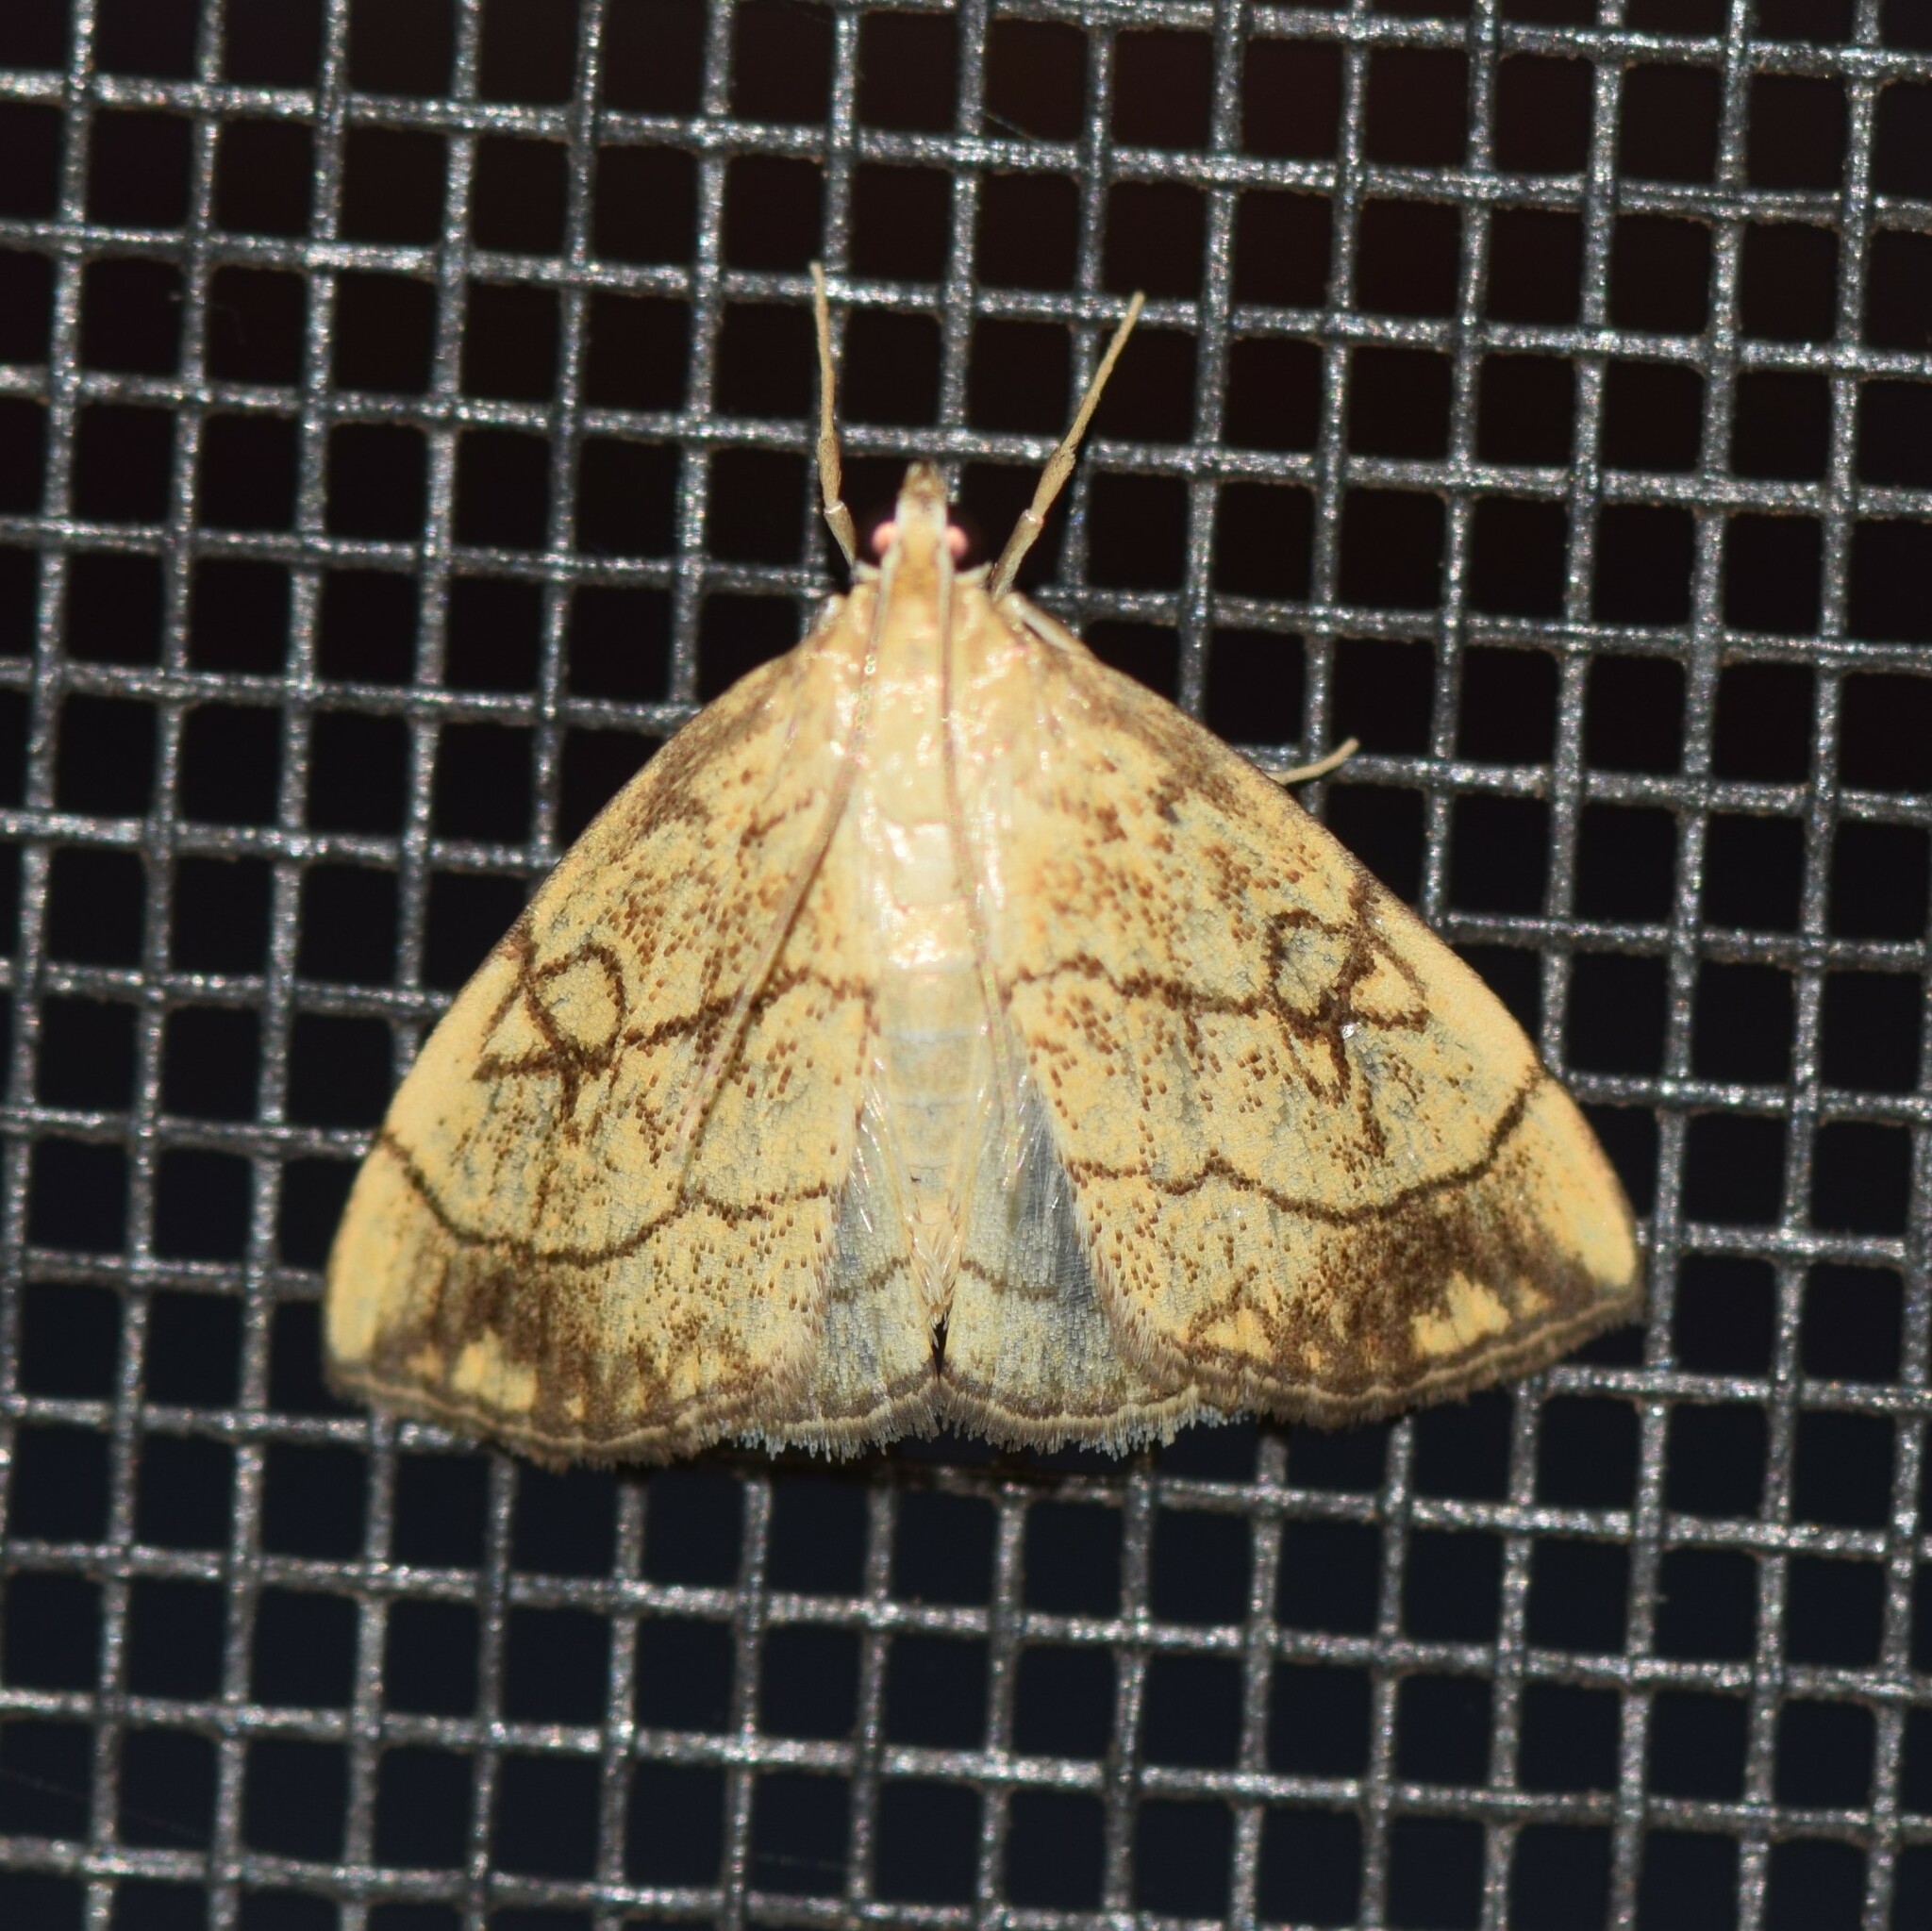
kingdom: Animalia
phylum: Arthropoda
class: Insecta
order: Lepidoptera
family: Crambidae
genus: Evergestis
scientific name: Evergestis pallidata
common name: Chequered pearl
